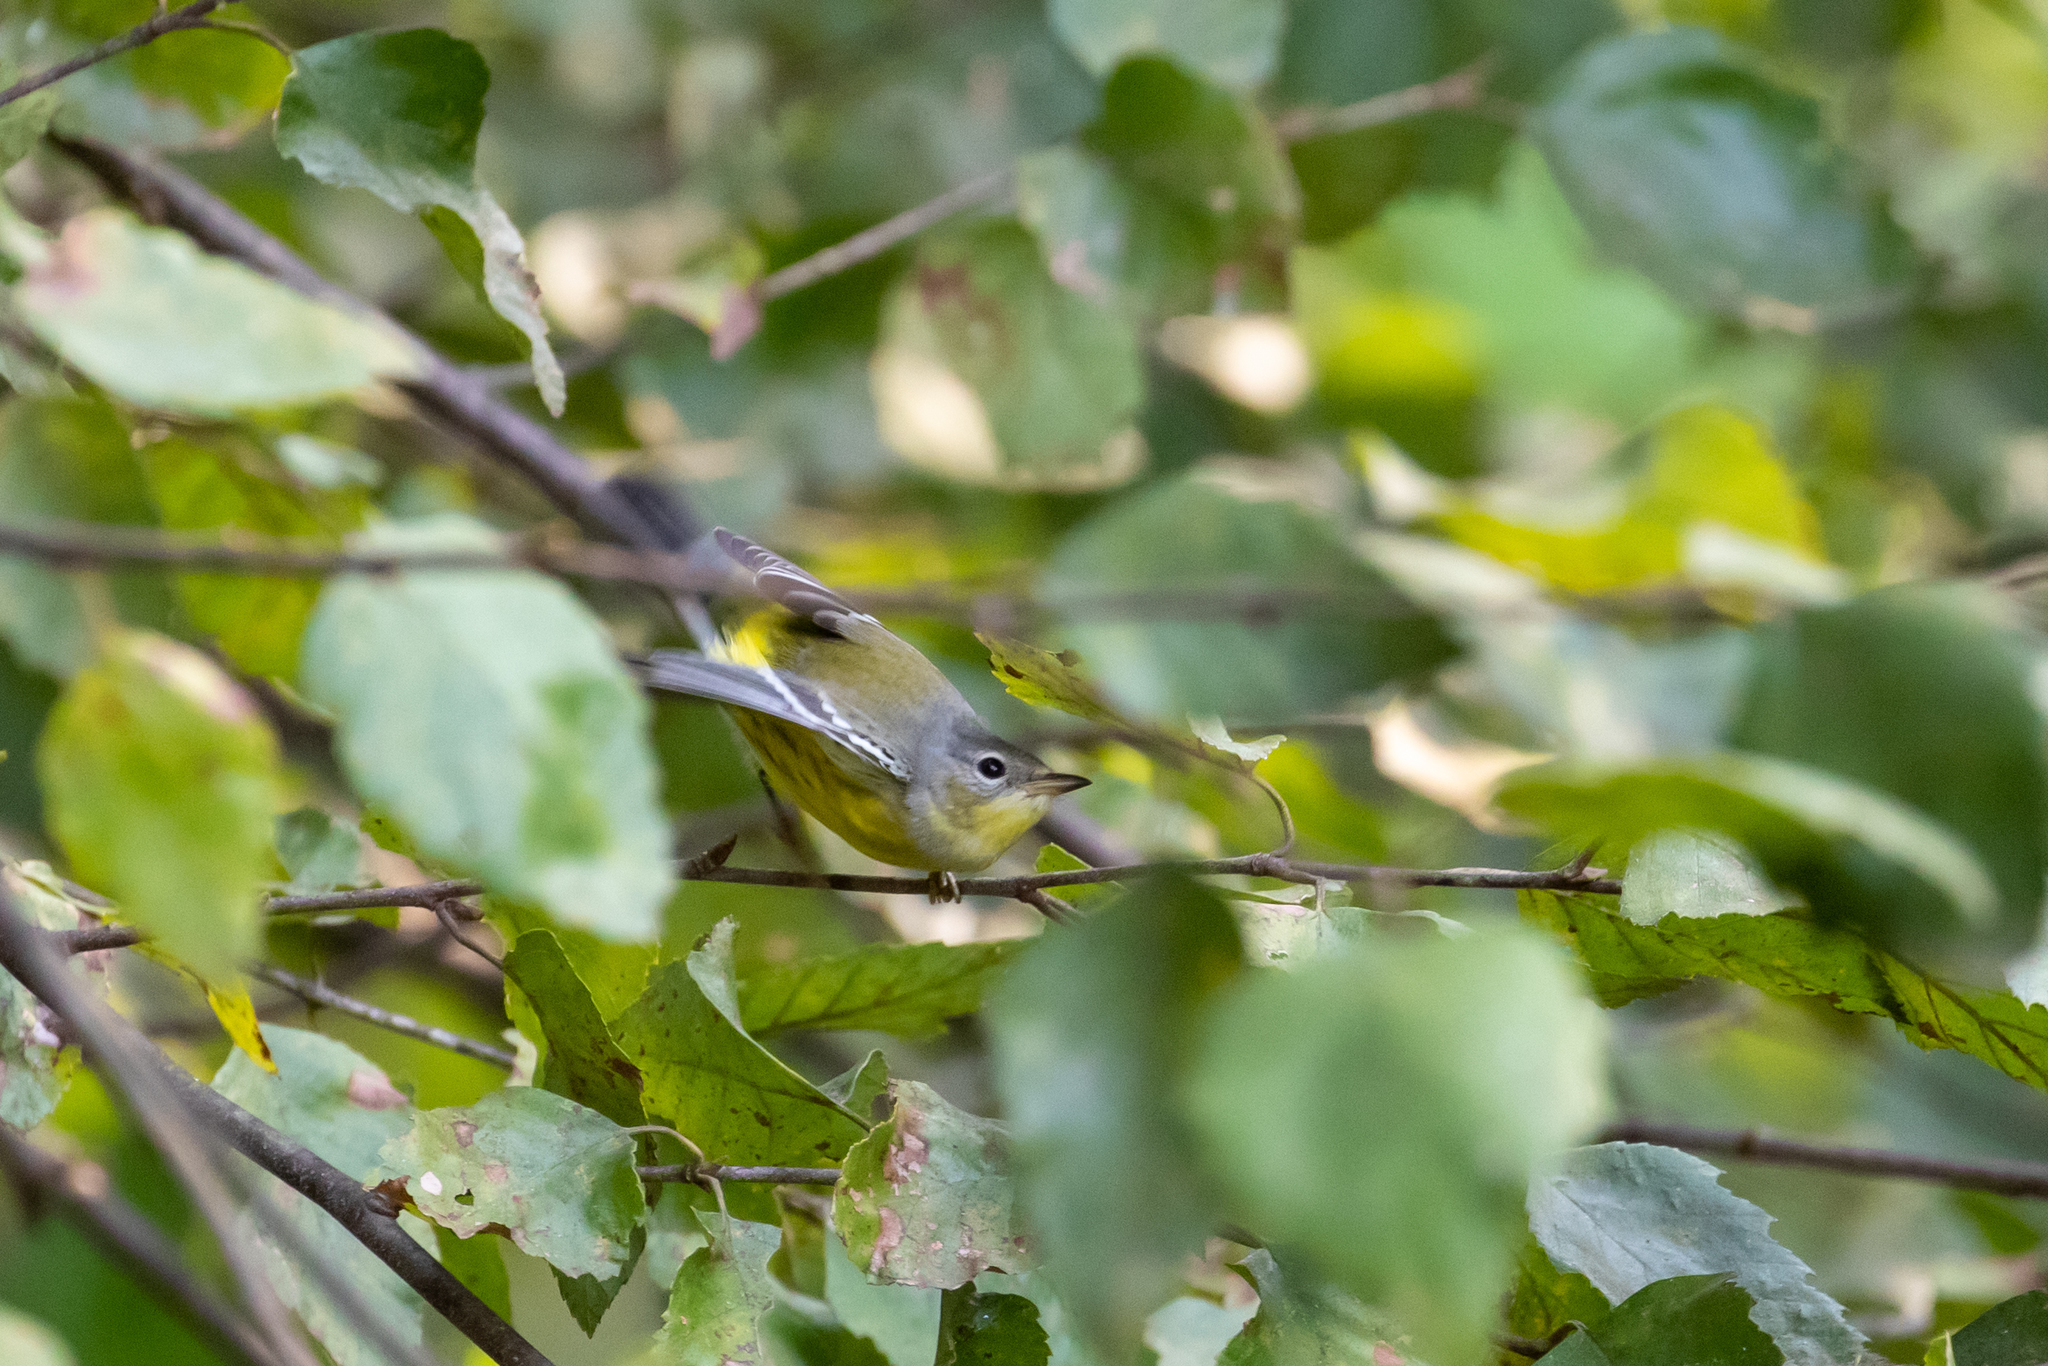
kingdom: Animalia
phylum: Chordata
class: Aves
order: Passeriformes
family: Parulidae
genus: Setophaga
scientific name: Setophaga magnolia
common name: Magnolia warbler
